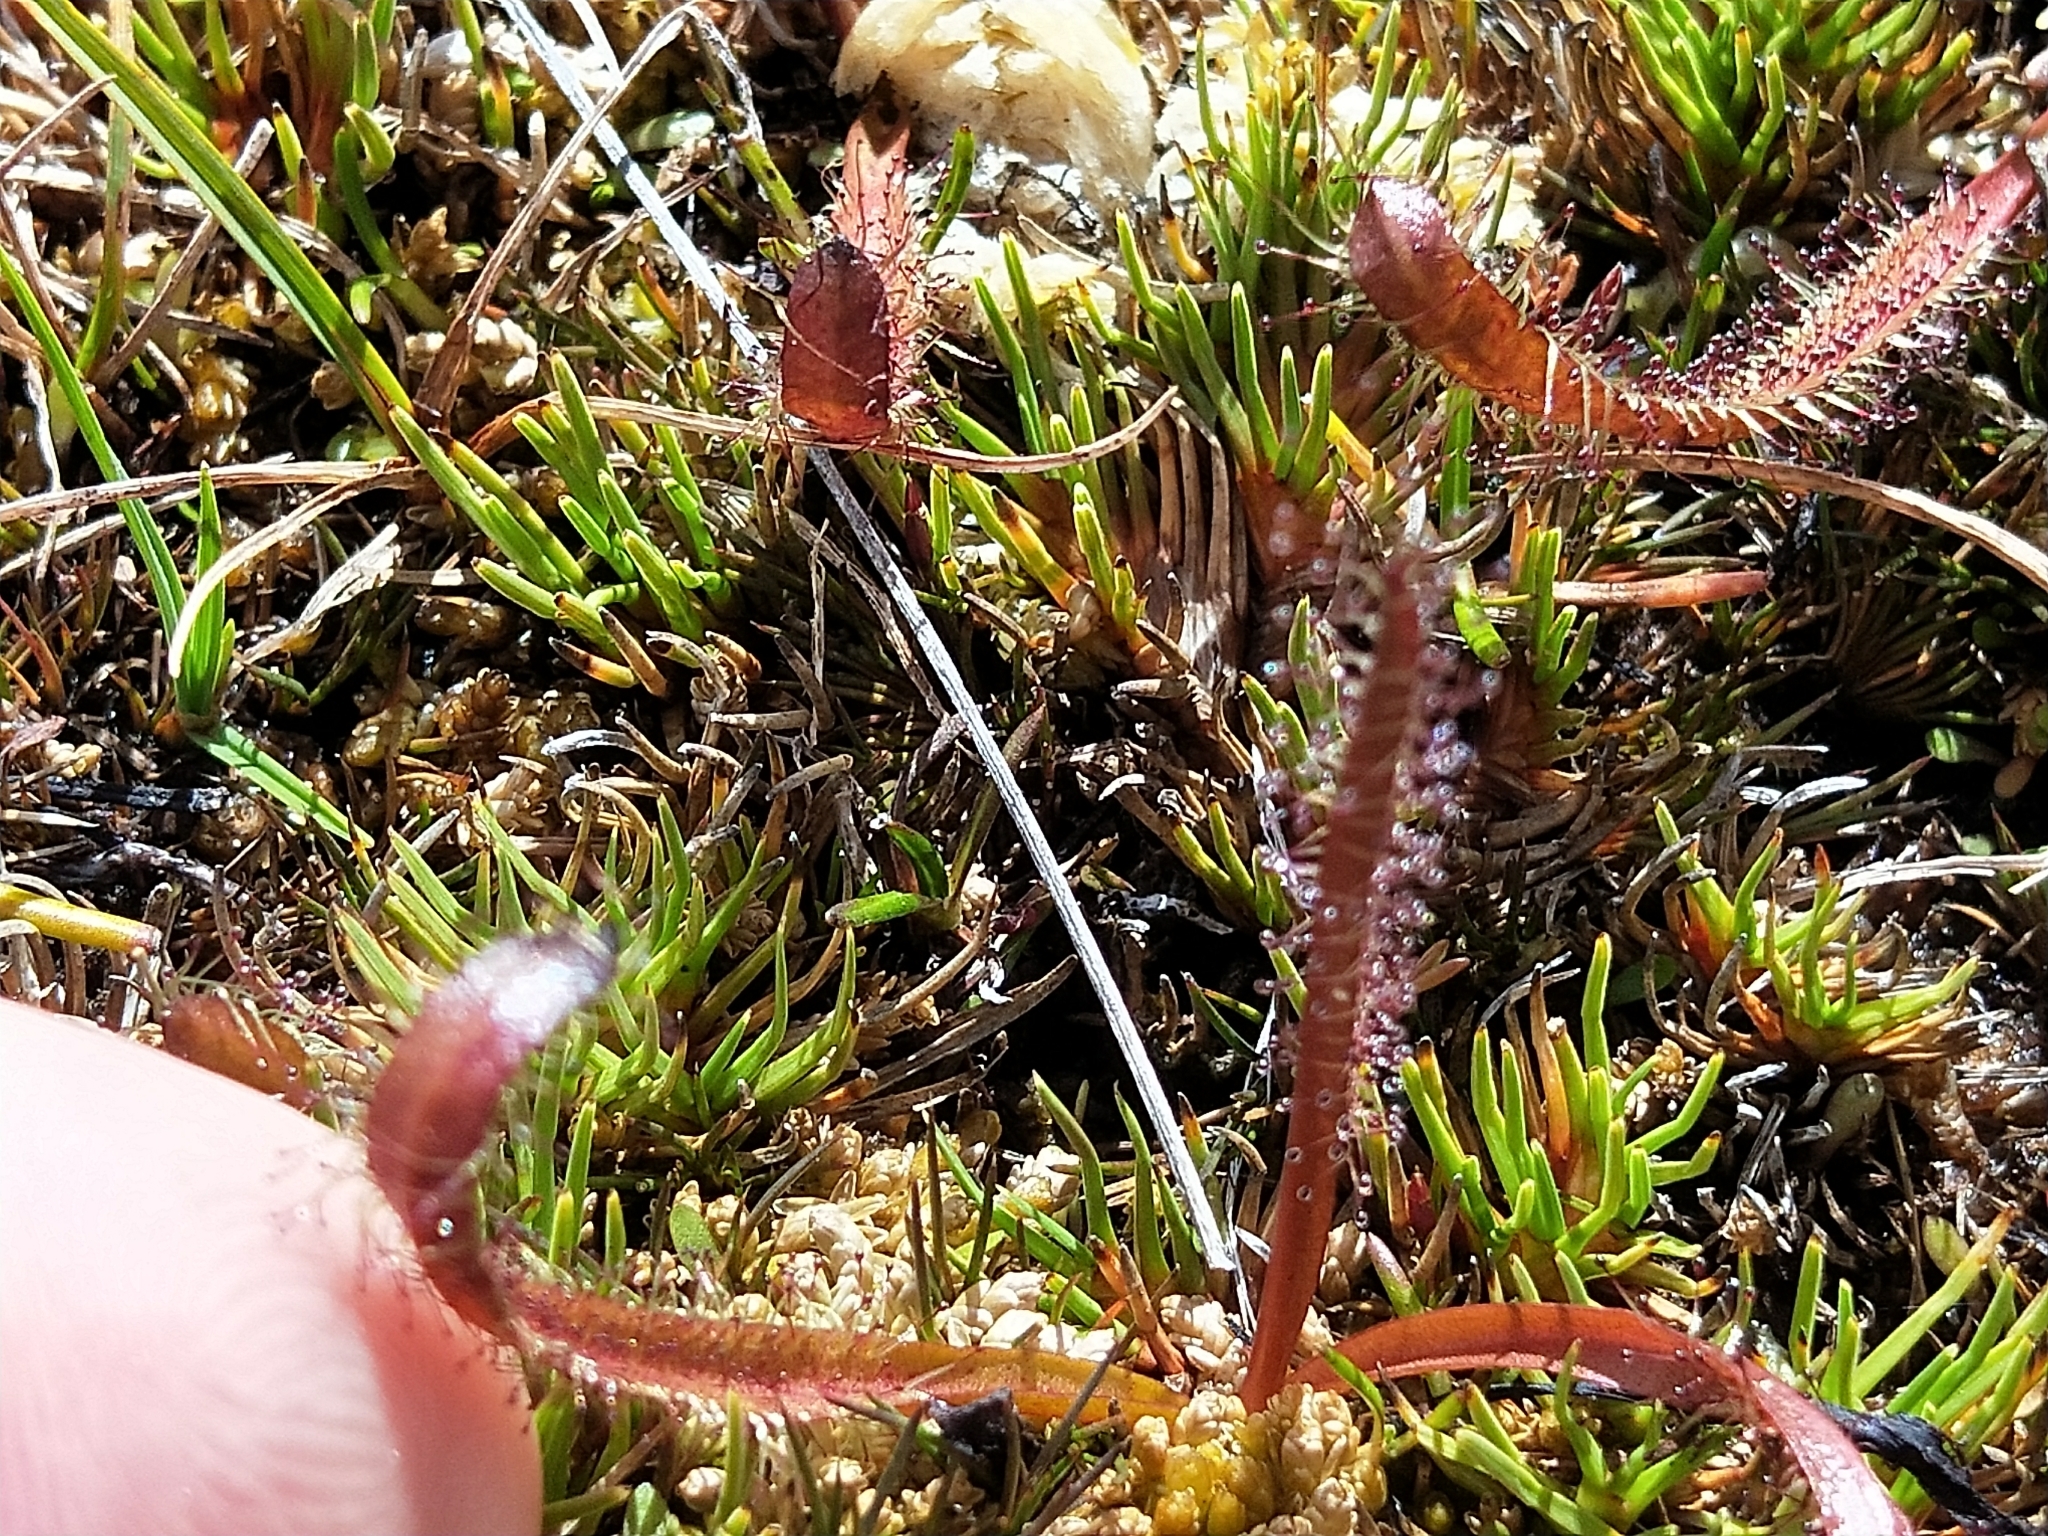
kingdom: Plantae
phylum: Tracheophyta
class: Magnoliopsida
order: Caryophyllales
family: Droseraceae
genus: Drosera
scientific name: Drosera arcturi
